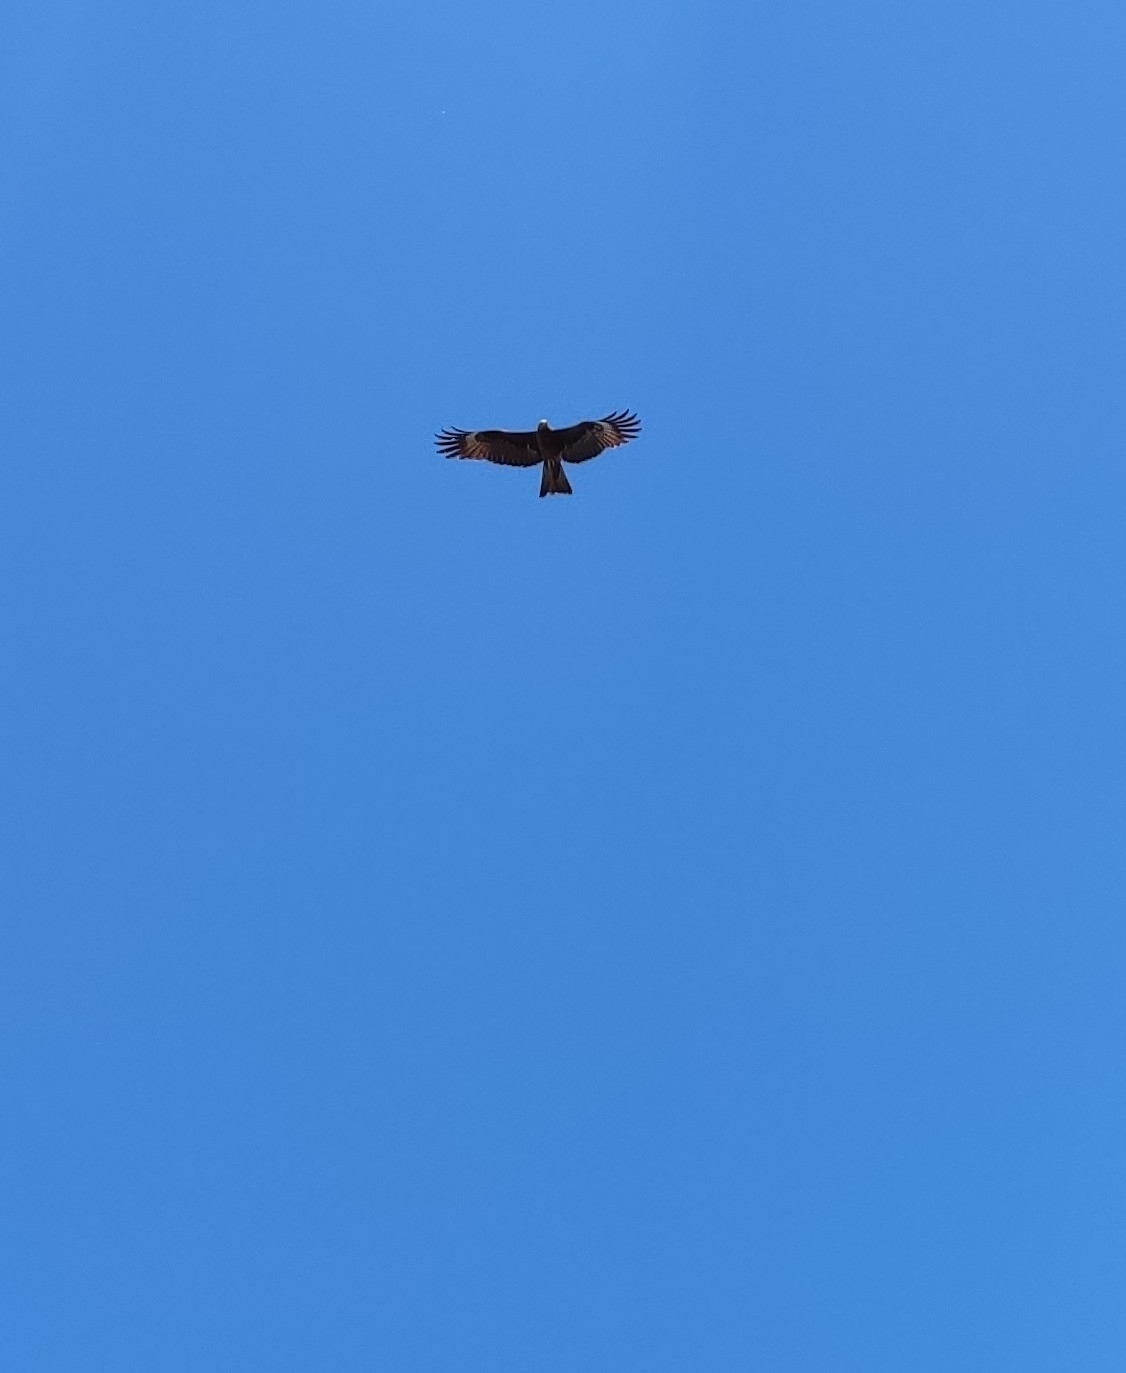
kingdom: Animalia
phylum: Chordata
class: Aves
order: Accipitriformes
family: Accipitridae
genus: Milvus
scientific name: Milvus migrans
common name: Black kite
